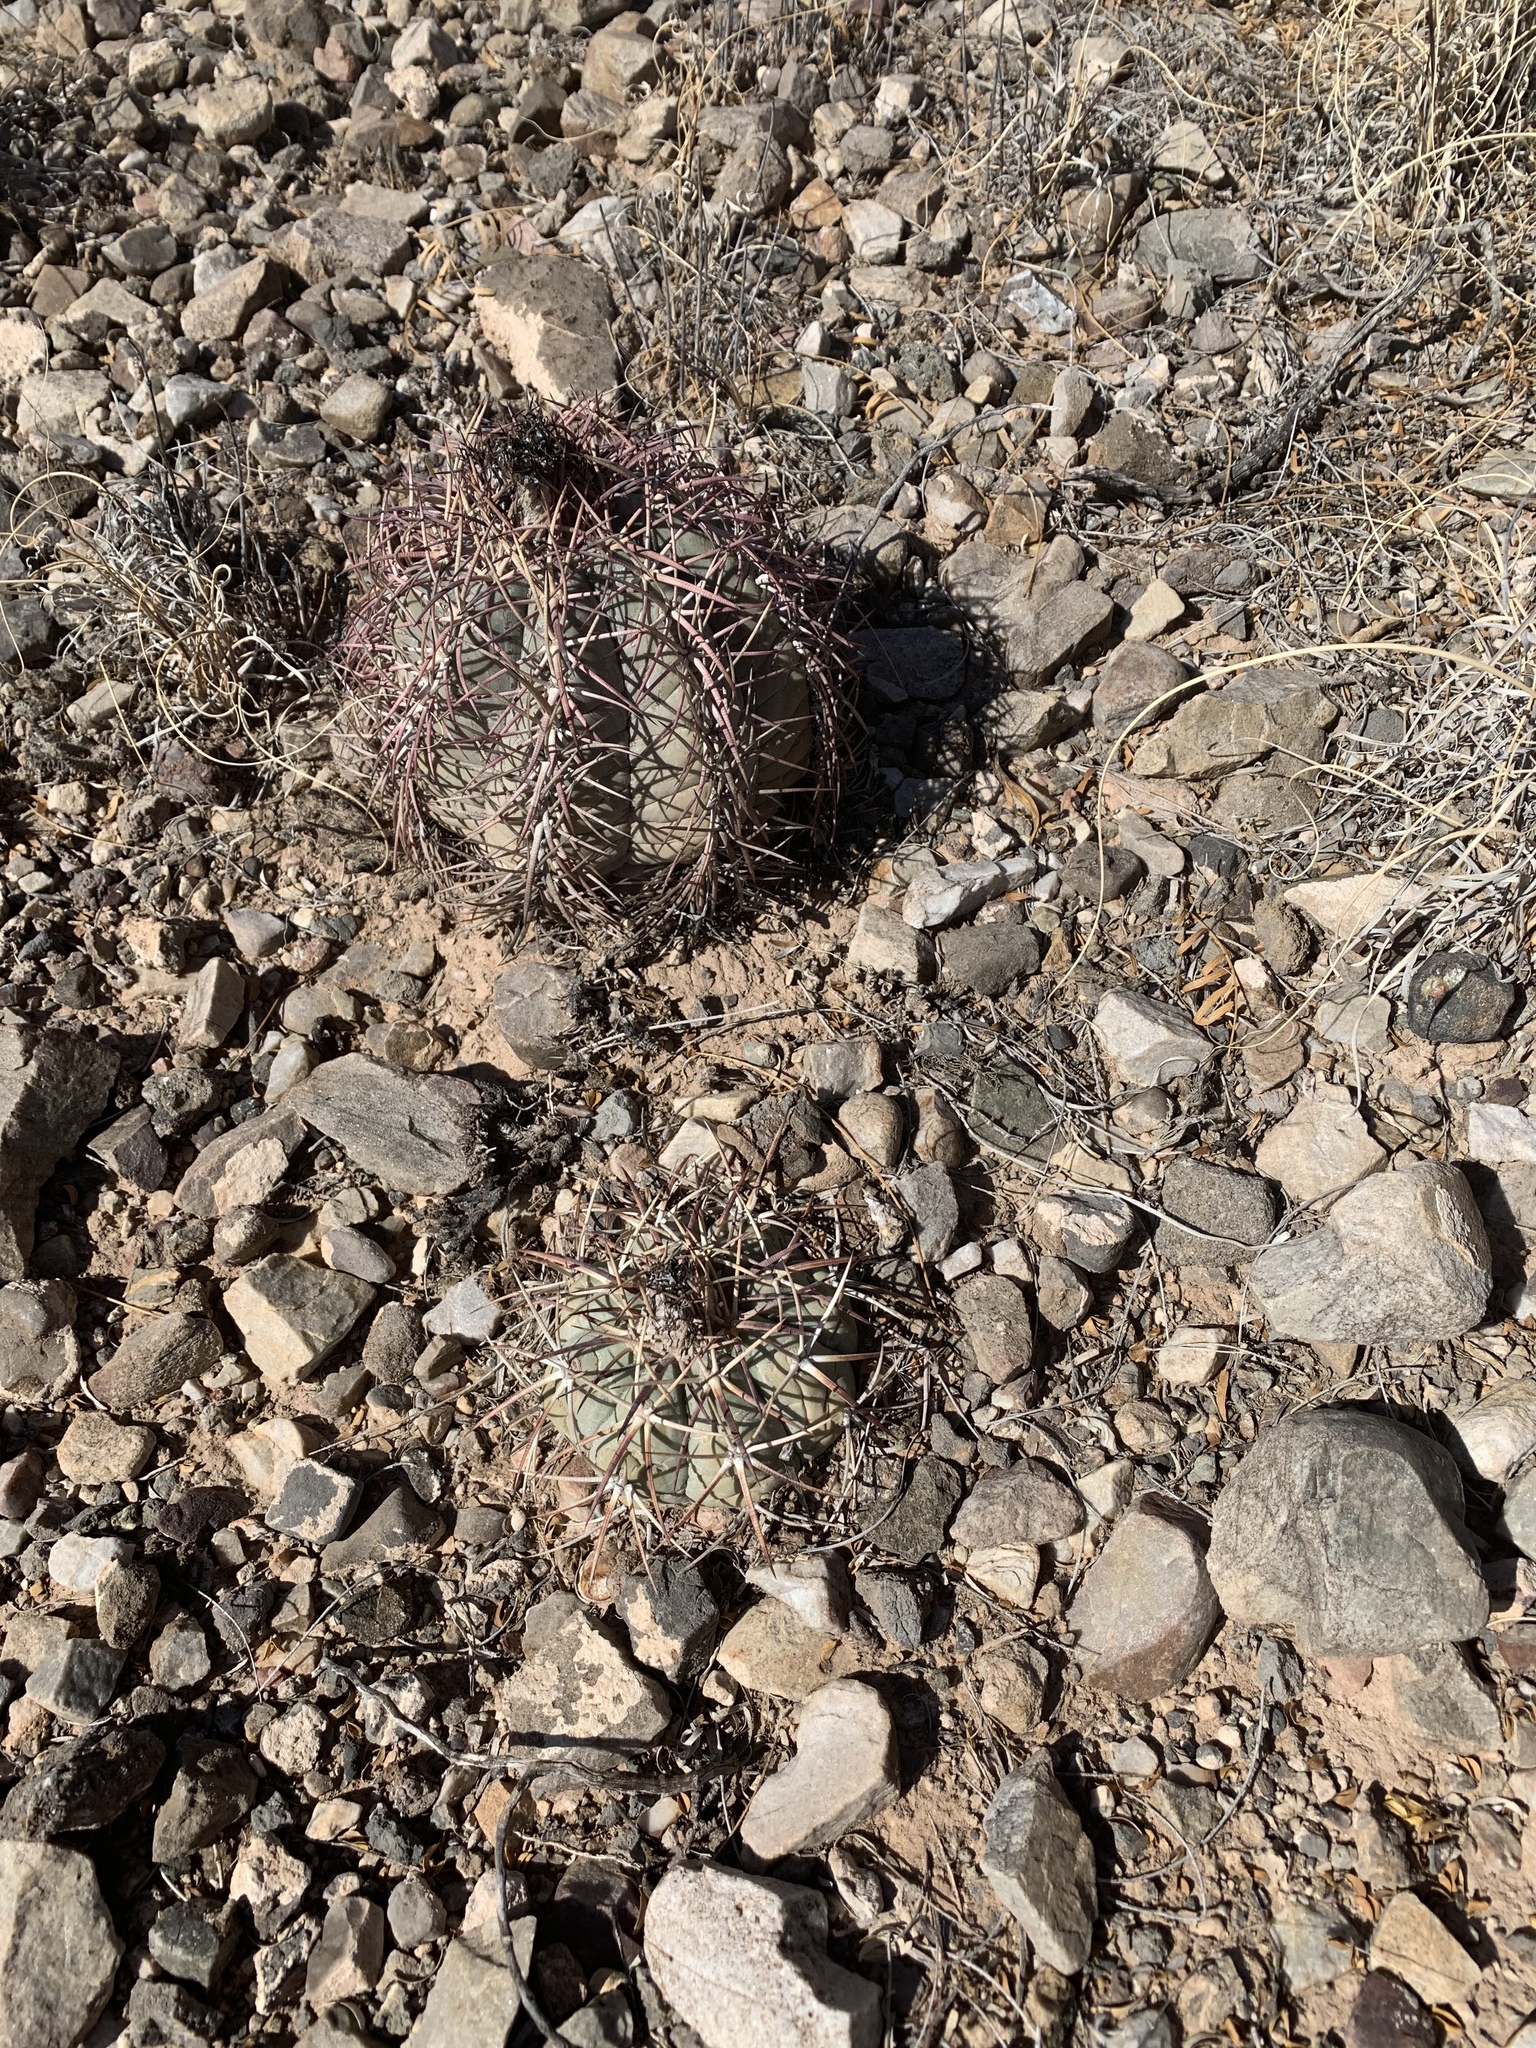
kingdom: Plantae
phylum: Tracheophyta
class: Magnoliopsida
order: Caryophyllales
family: Cactaceae
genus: Echinocactus
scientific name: Echinocactus horizonthalonius
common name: Devilshead
